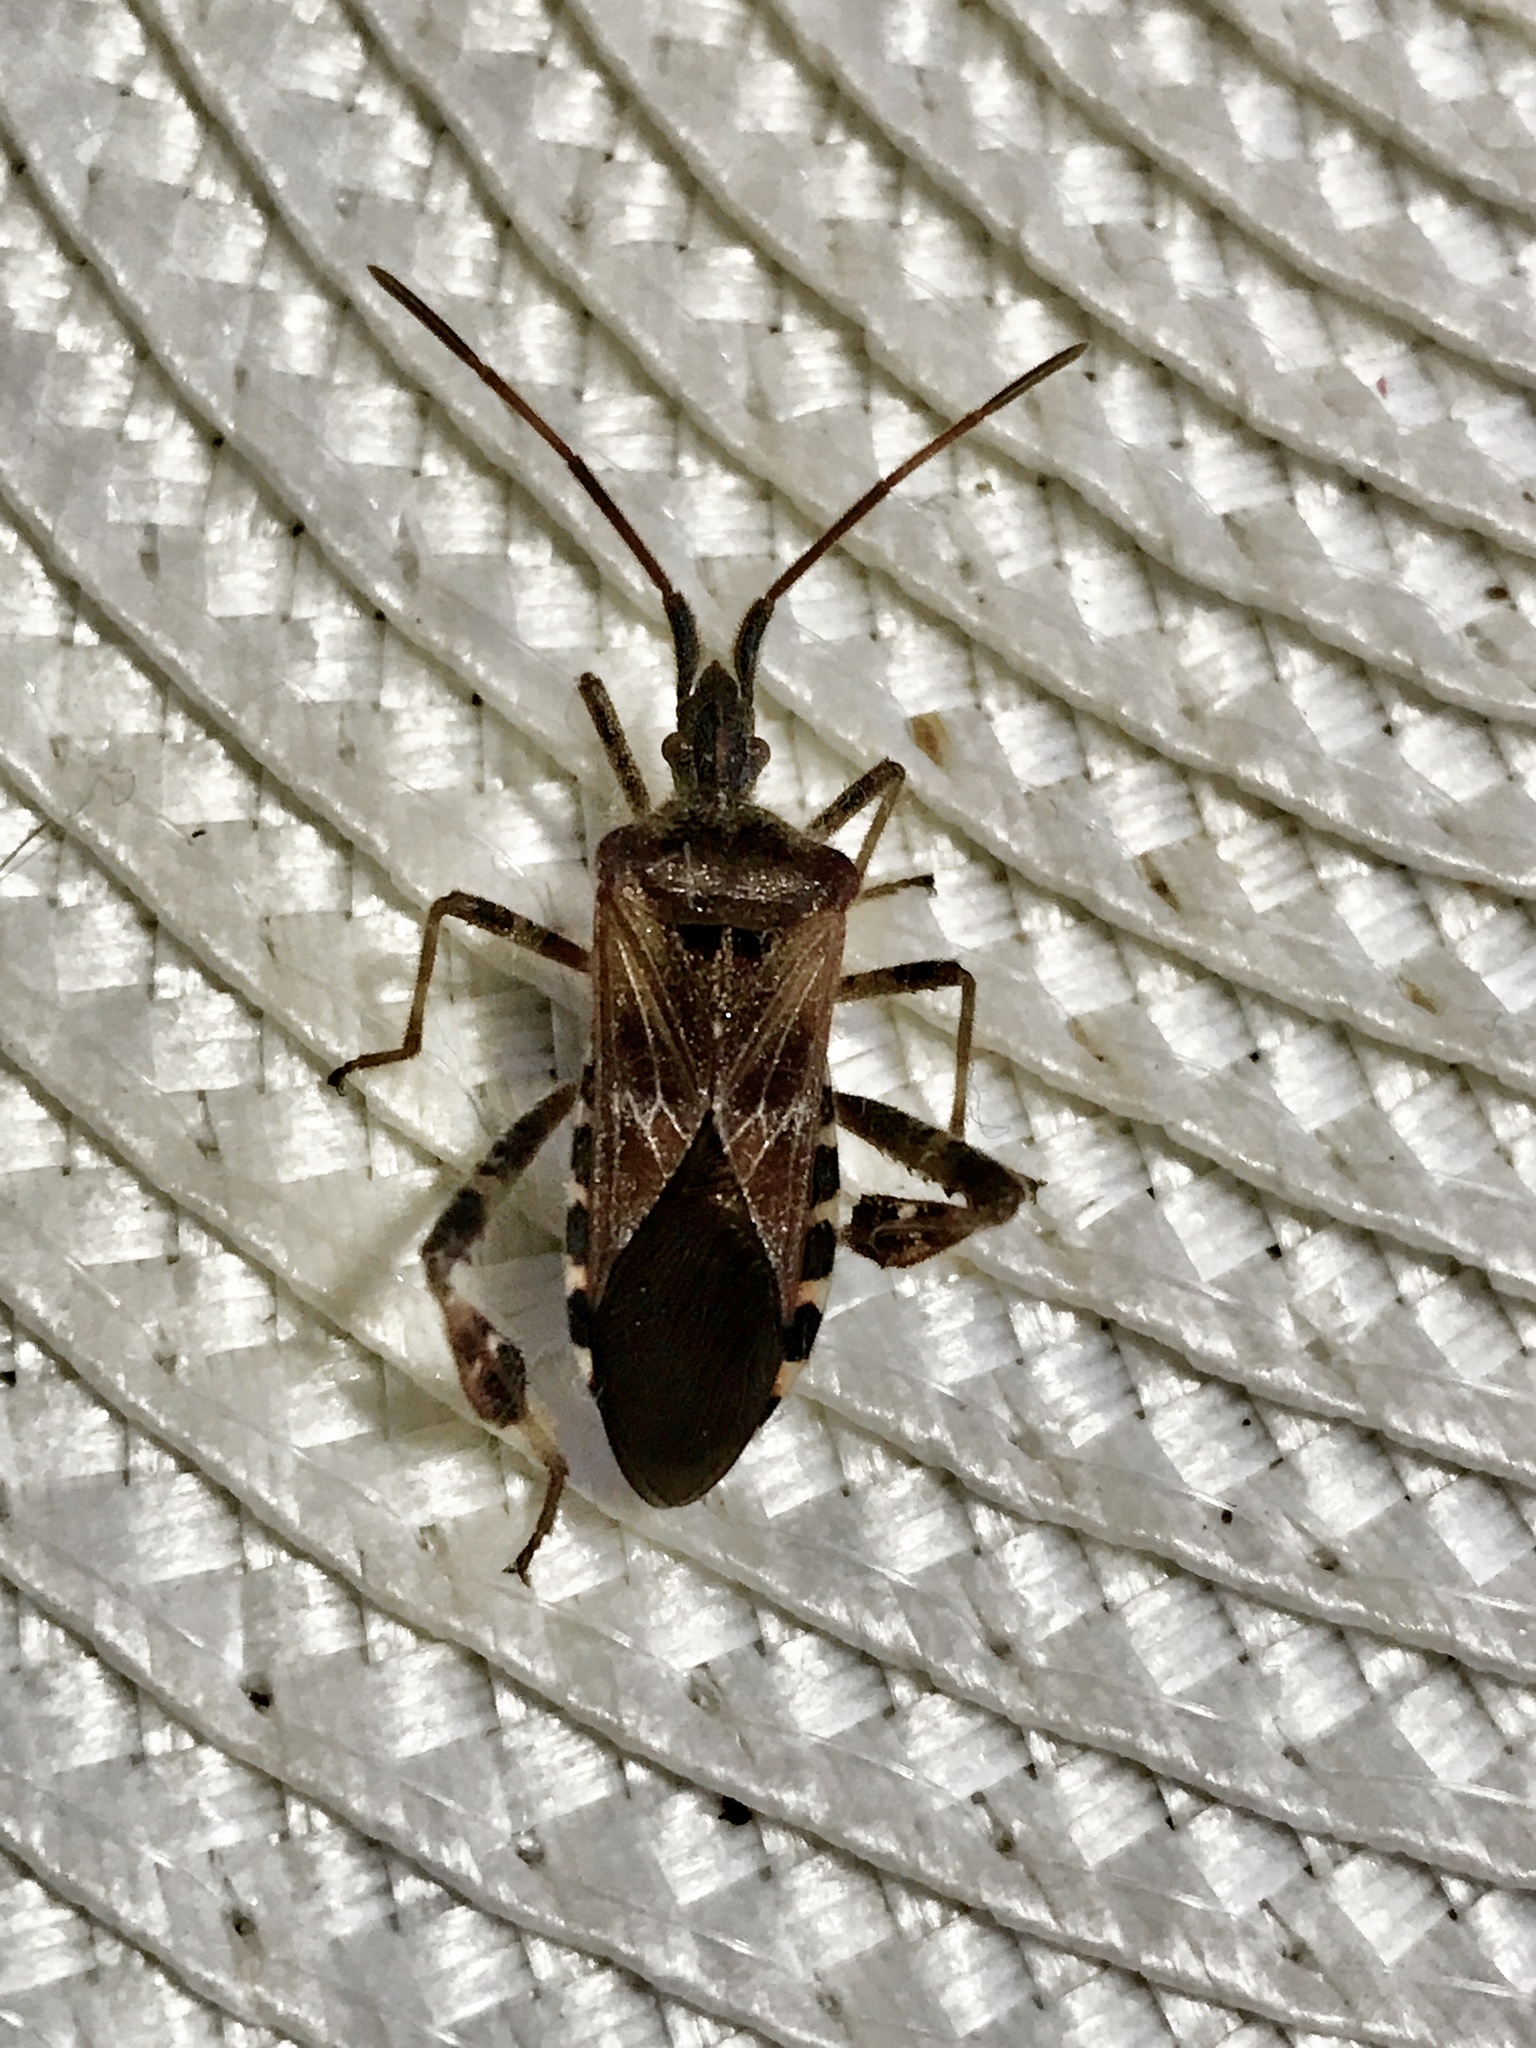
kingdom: Animalia
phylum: Arthropoda
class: Insecta
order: Hemiptera
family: Coreidae
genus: Leptoglossus
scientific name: Leptoglossus occidentalis
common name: Western conifer-seed bug
